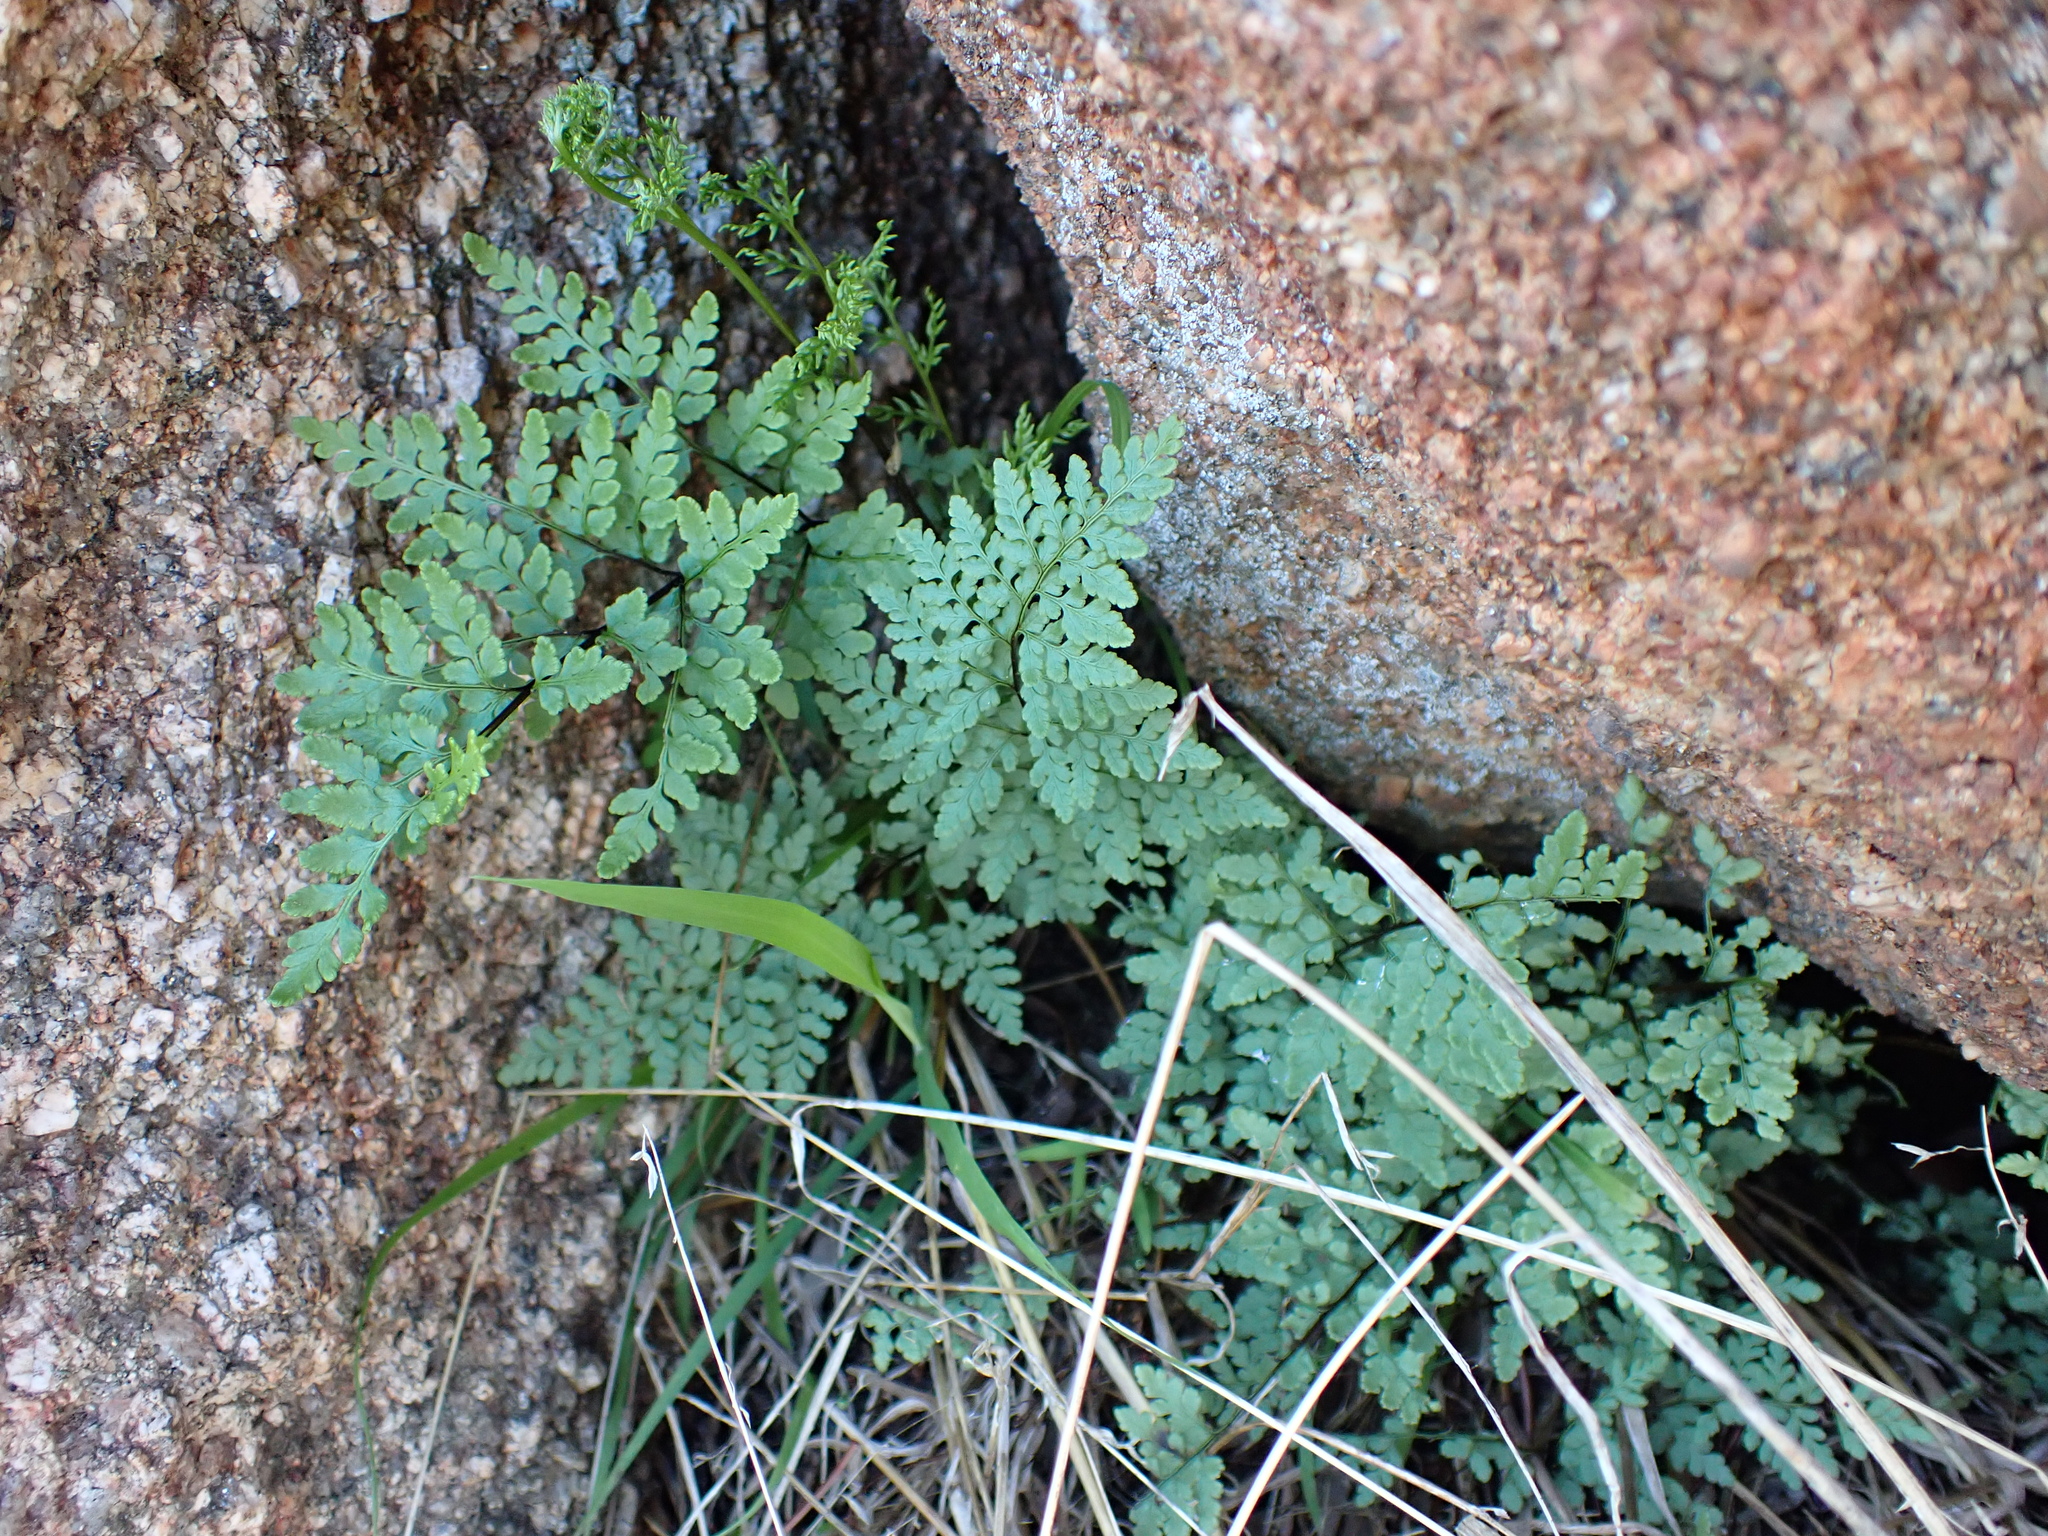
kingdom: Plantae
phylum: Tracheophyta
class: Polypodiopsida
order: Polypodiales
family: Pteridaceae
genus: Cheilanthes
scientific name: Cheilanthes austrotenuifolia
